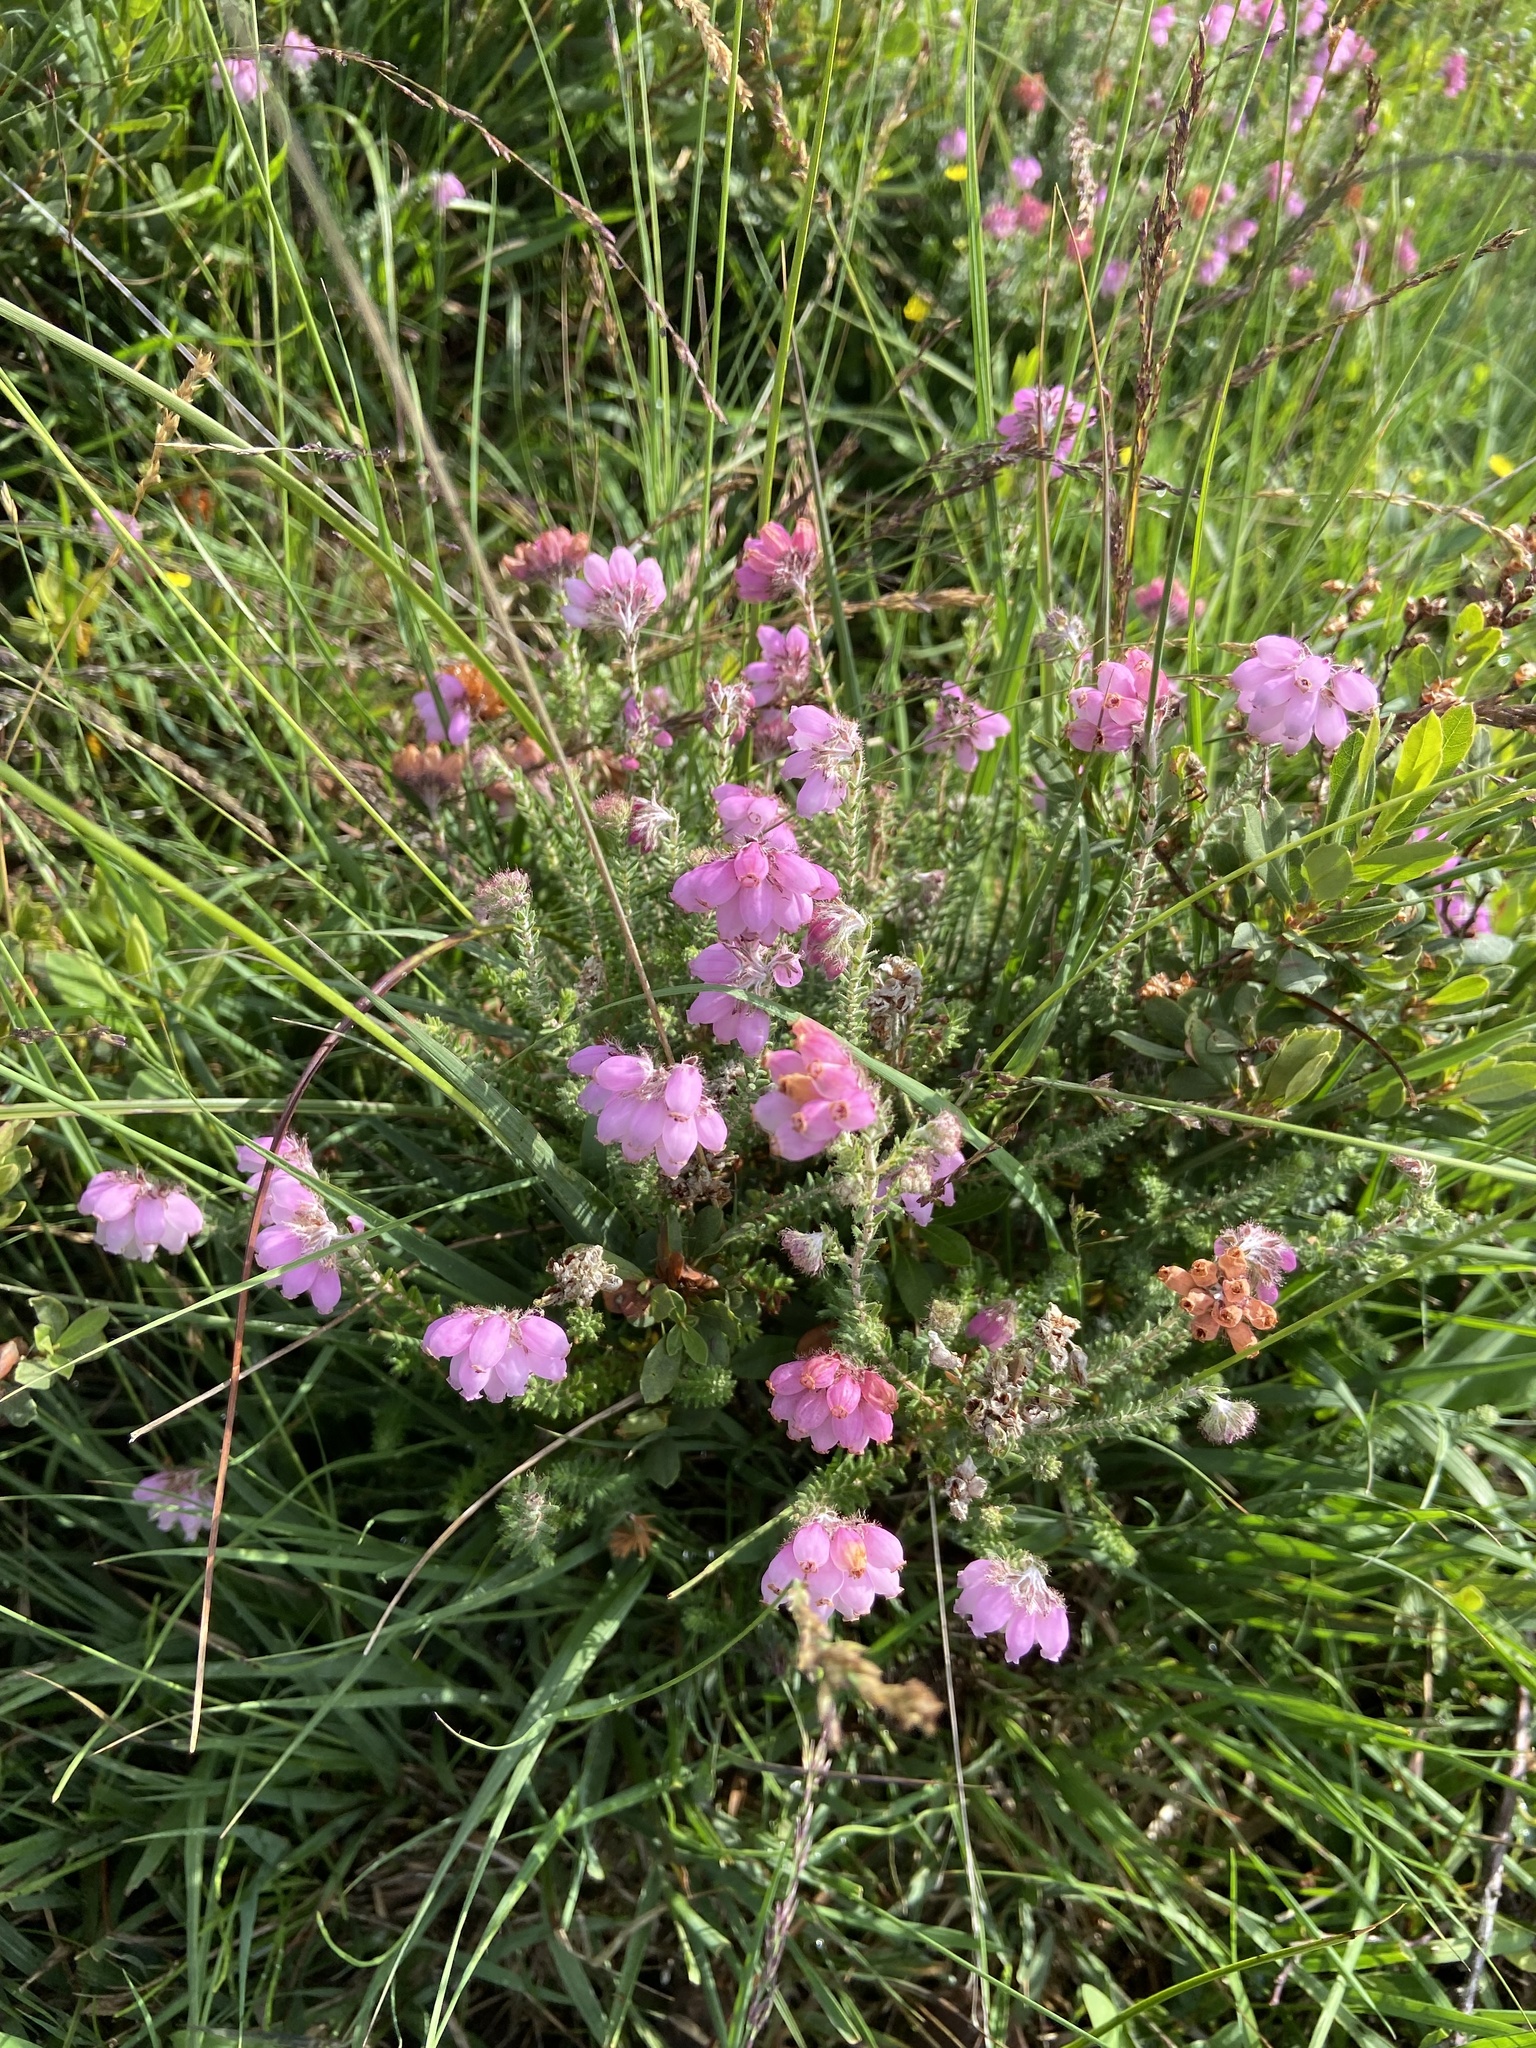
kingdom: Plantae
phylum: Tracheophyta
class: Magnoliopsida
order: Ericales
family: Ericaceae
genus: Erica
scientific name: Erica tetralix
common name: Cross-leaved heath
